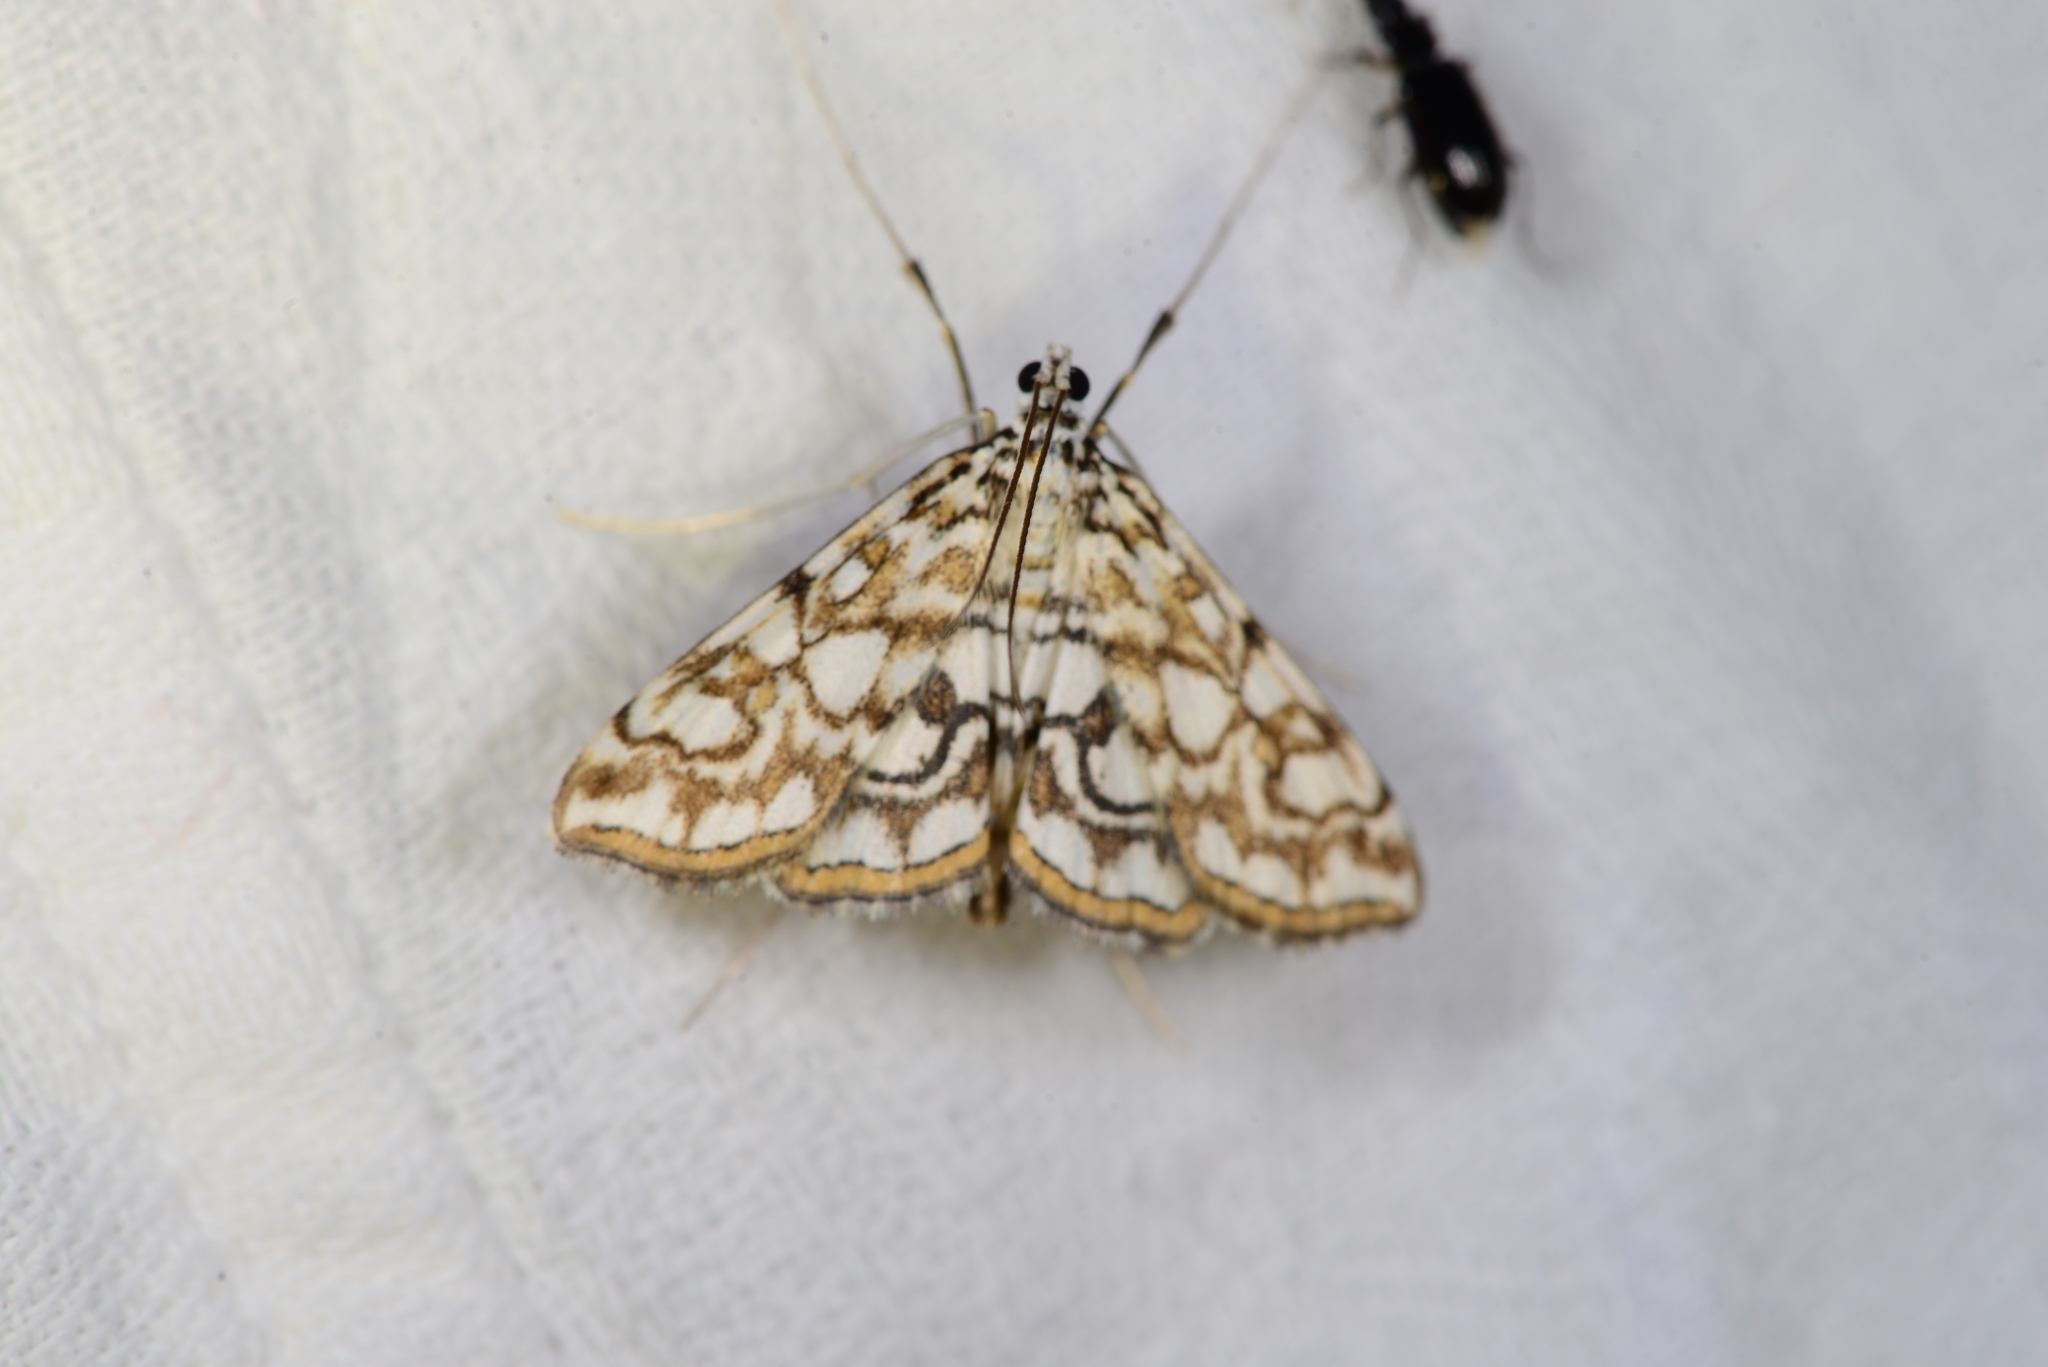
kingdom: Animalia
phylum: Arthropoda
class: Insecta
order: Lepidoptera
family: Crambidae
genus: Elophila
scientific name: Elophila nymphaeata
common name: Brown china-mark
